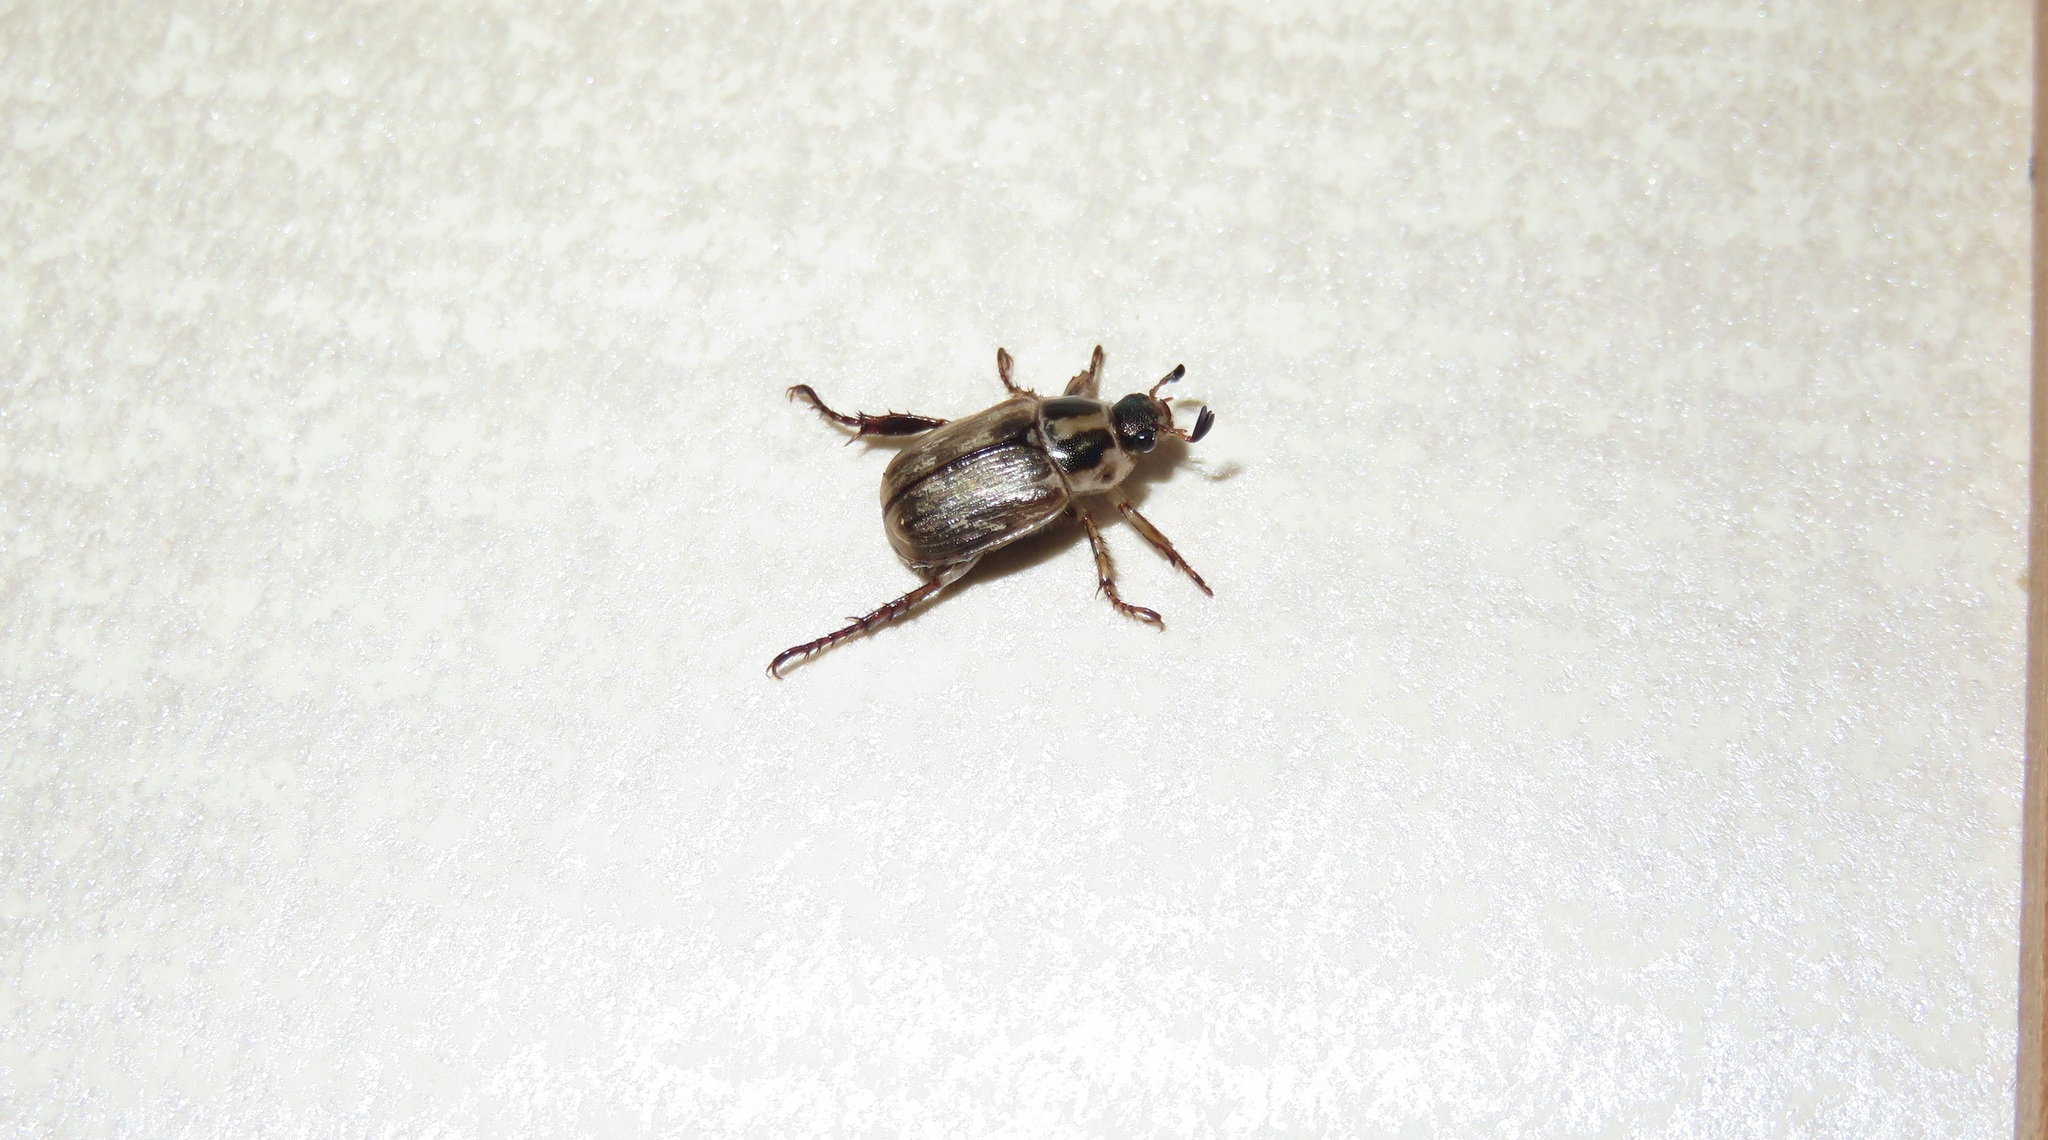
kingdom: Animalia
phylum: Arthropoda
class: Insecta
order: Coleoptera
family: Scarabaeidae
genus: Exomala
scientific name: Exomala orientalis
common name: Oriental beetle
